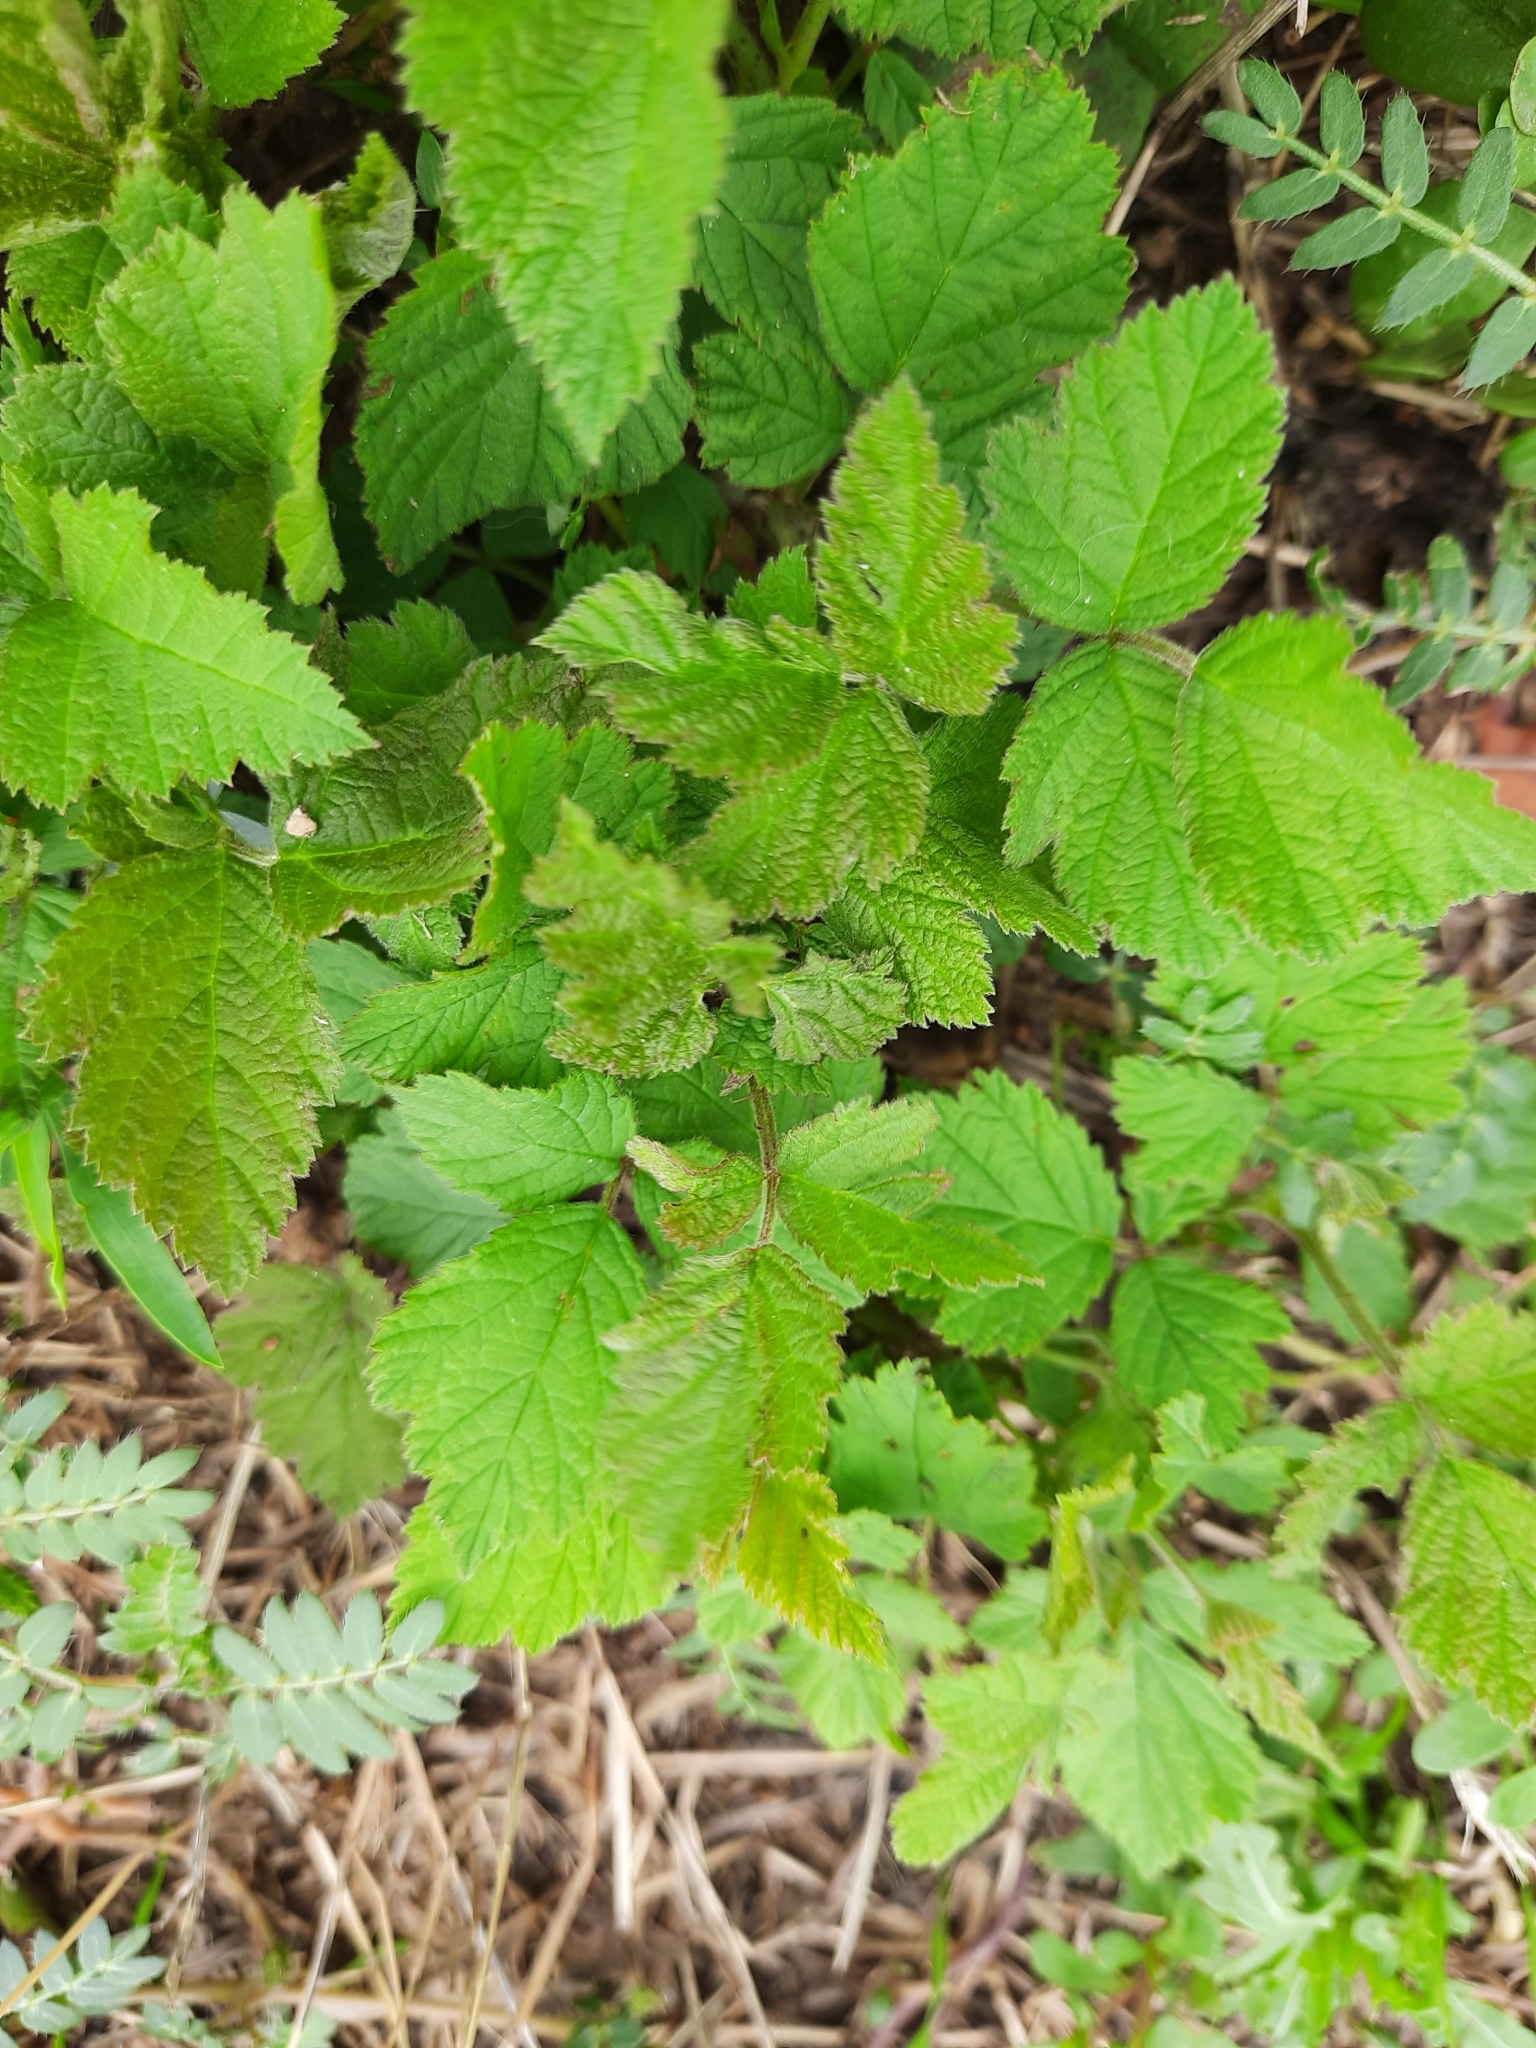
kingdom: Plantae
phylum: Tracheophyta
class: Magnoliopsida
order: Rosales
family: Rosaceae
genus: Rubus
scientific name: Rubus caesius
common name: Dewberry
